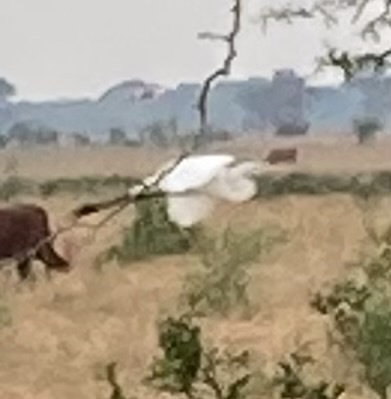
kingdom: Animalia
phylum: Chordata
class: Aves
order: Pelecaniformes
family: Ardeidae
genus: Ardea
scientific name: Ardea alba
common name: Great egret
